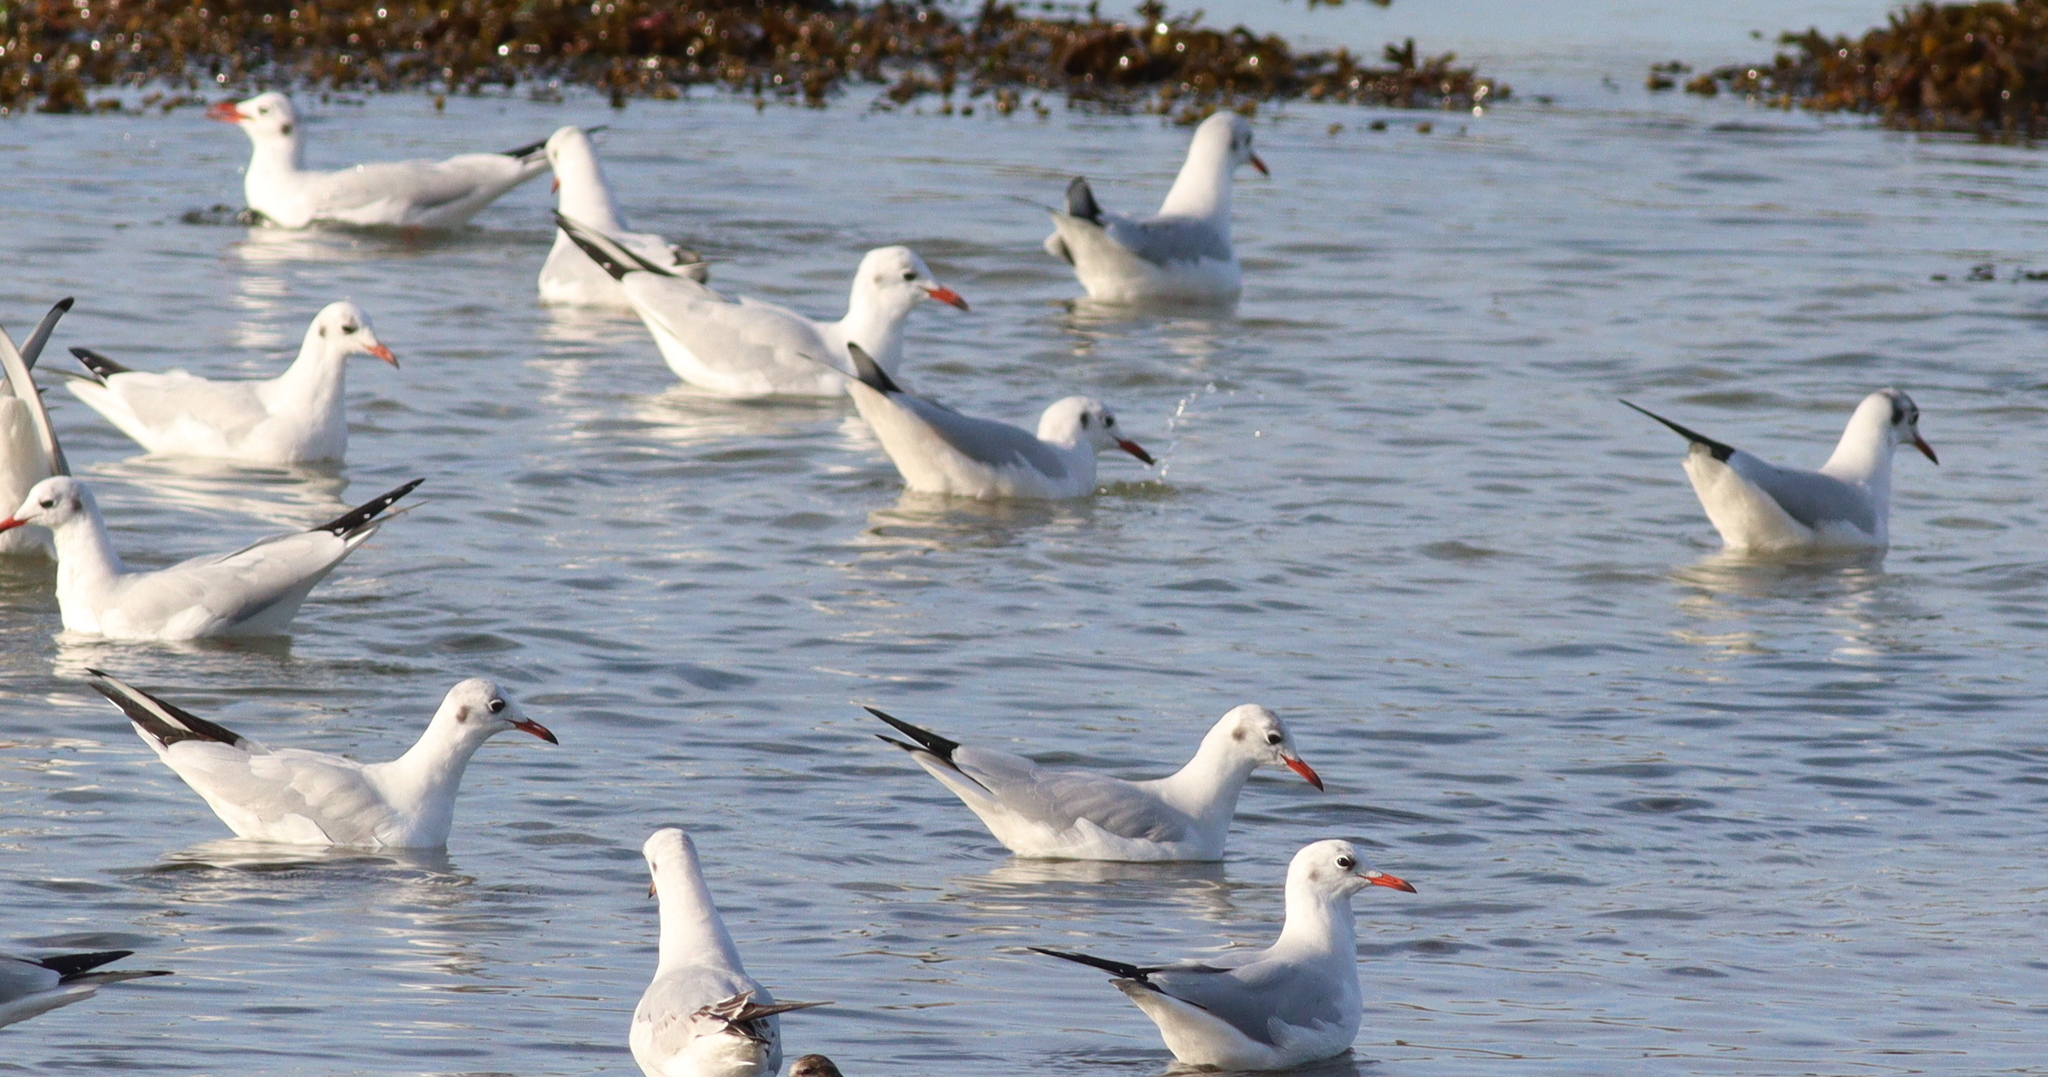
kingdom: Animalia
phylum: Chordata
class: Aves
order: Charadriiformes
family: Laridae
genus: Chroicocephalus
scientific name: Chroicocephalus ridibundus
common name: Black-headed gull
